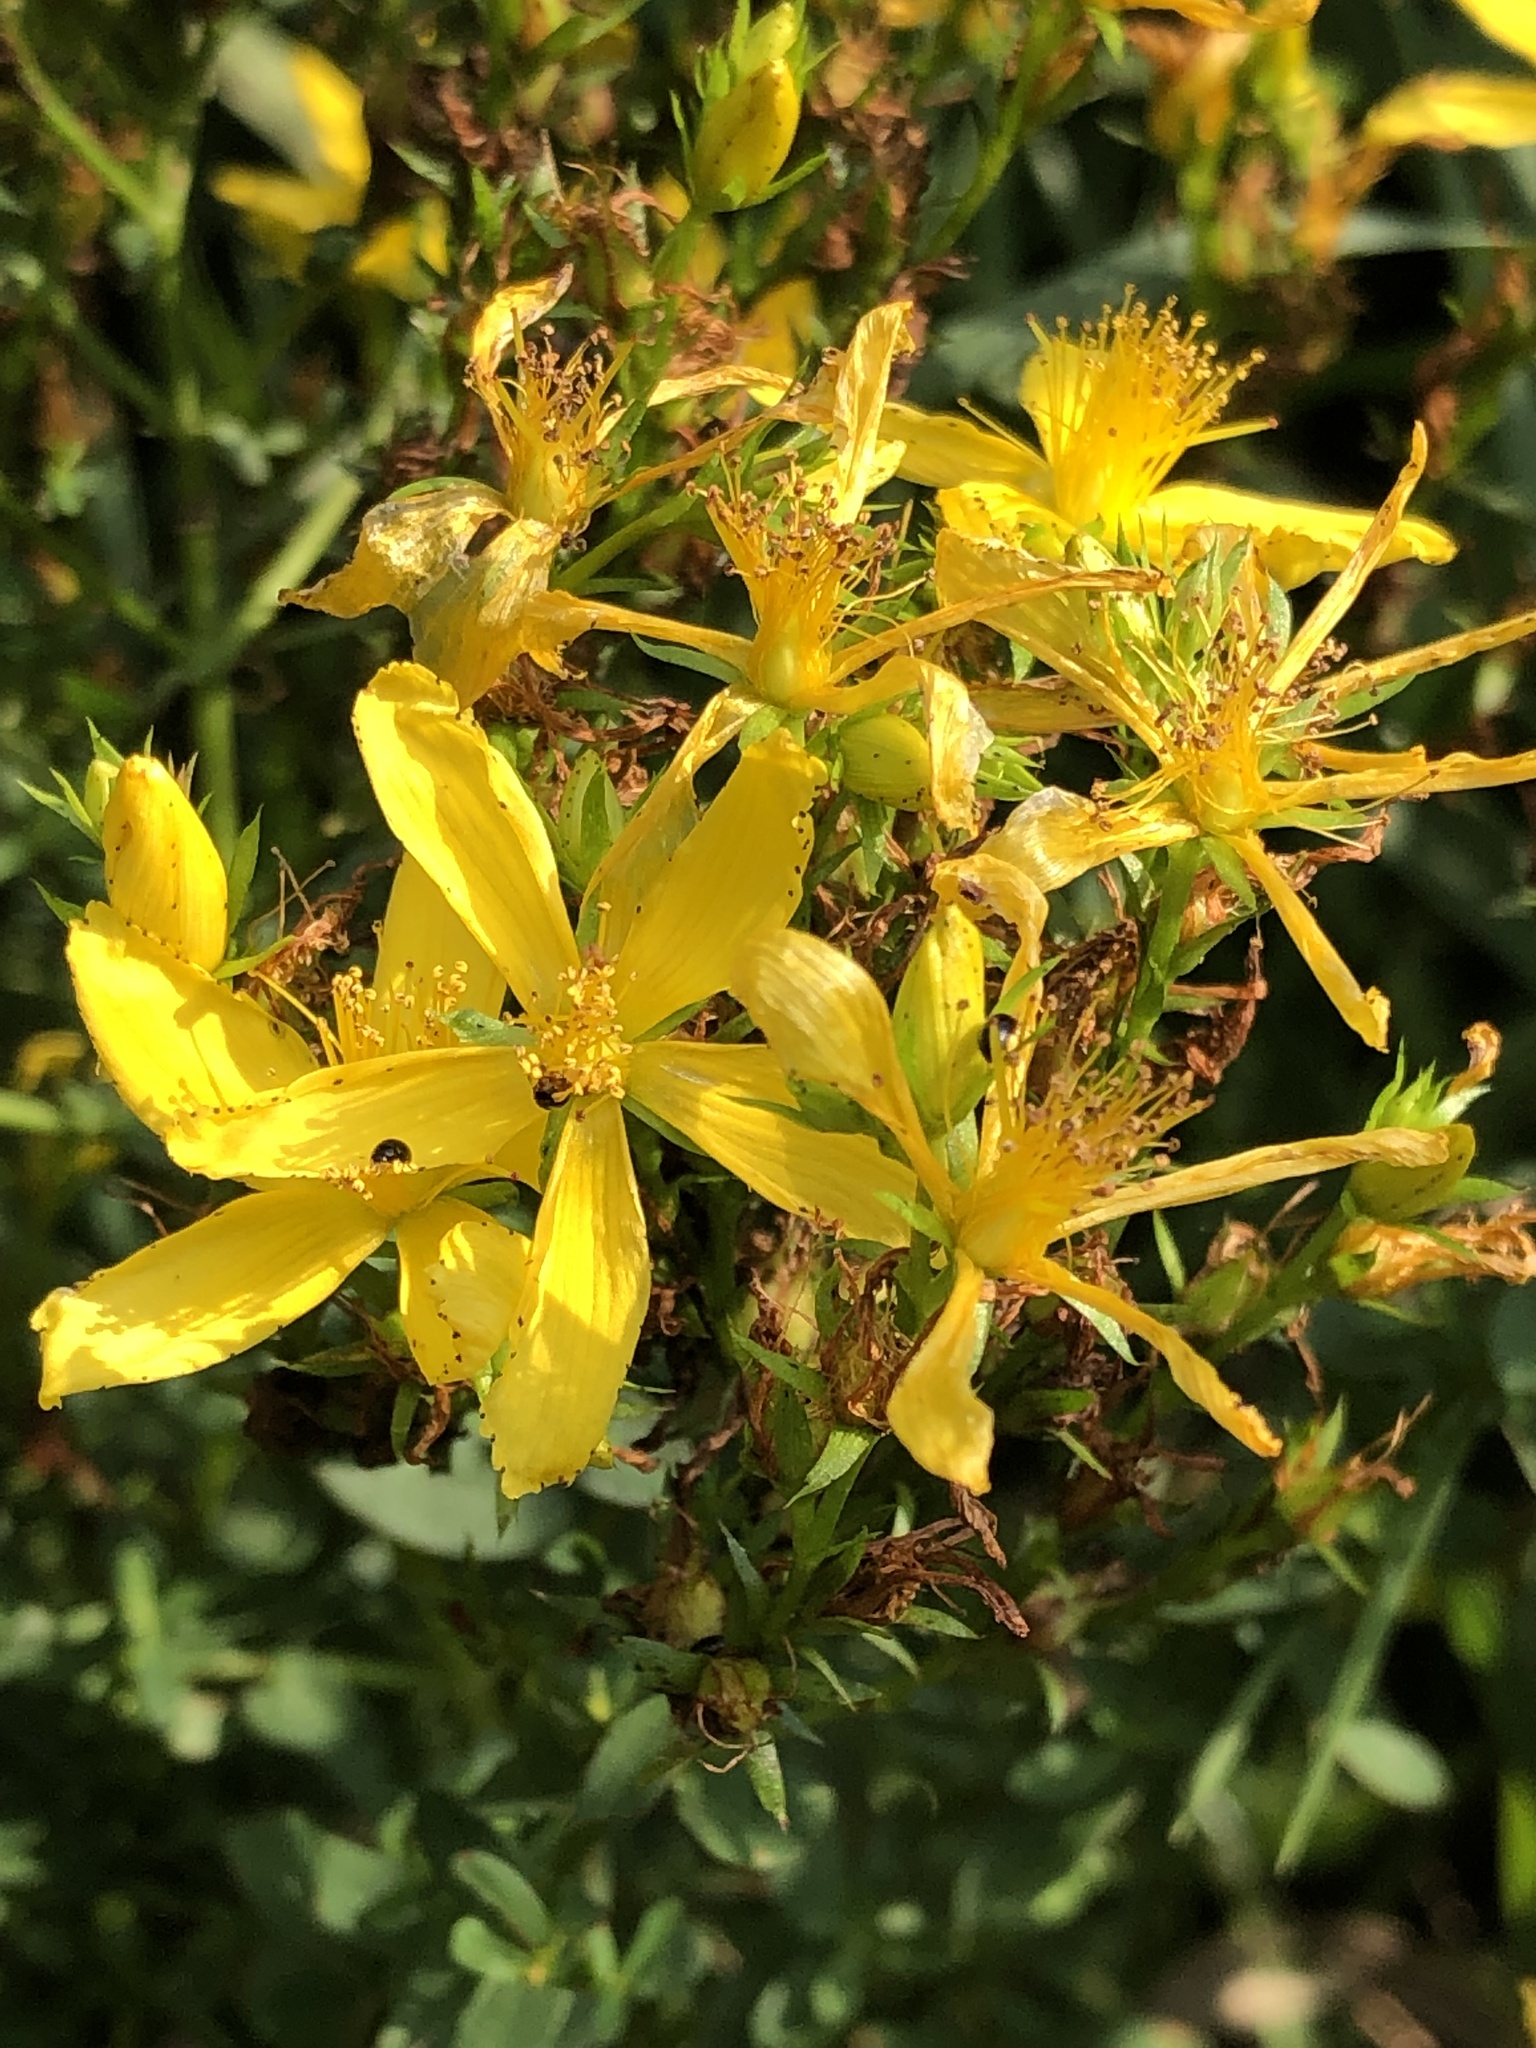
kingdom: Plantae
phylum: Tracheophyta
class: Magnoliopsida
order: Malpighiales
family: Hypericaceae
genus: Hypericum
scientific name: Hypericum perforatum
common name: Common st. johnswort
